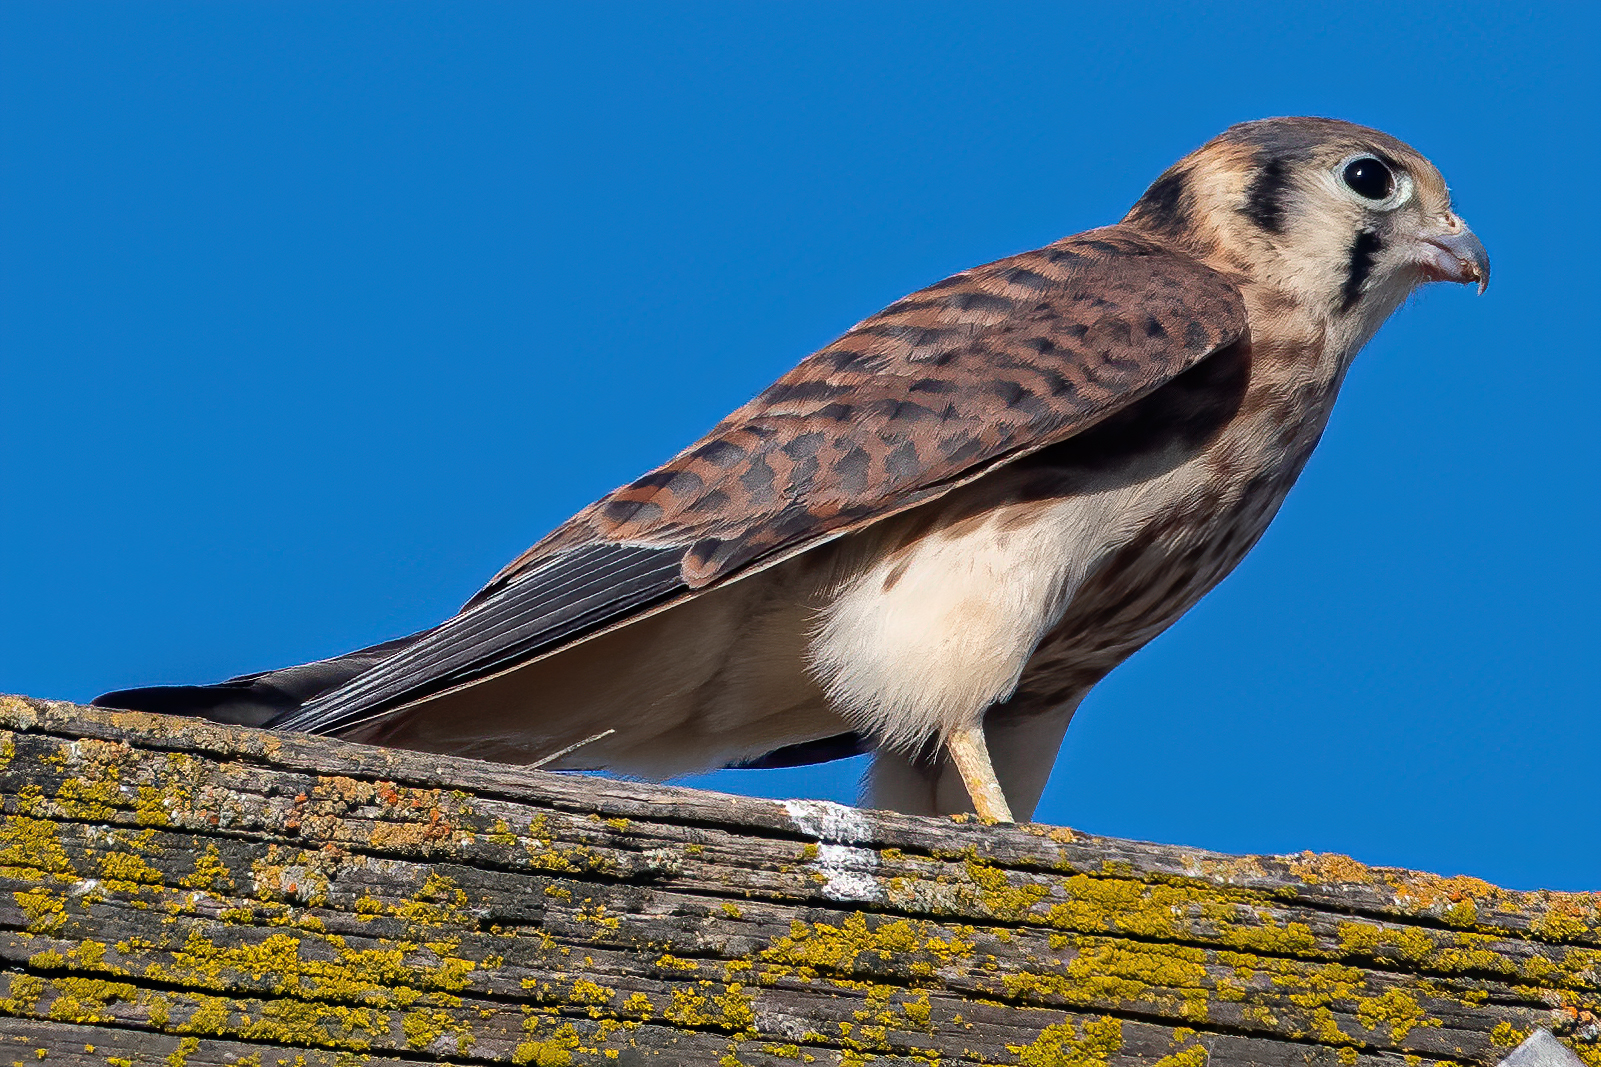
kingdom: Animalia
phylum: Chordata
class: Aves
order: Falconiformes
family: Falconidae
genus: Falco
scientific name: Falco sparverius
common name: American kestrel
